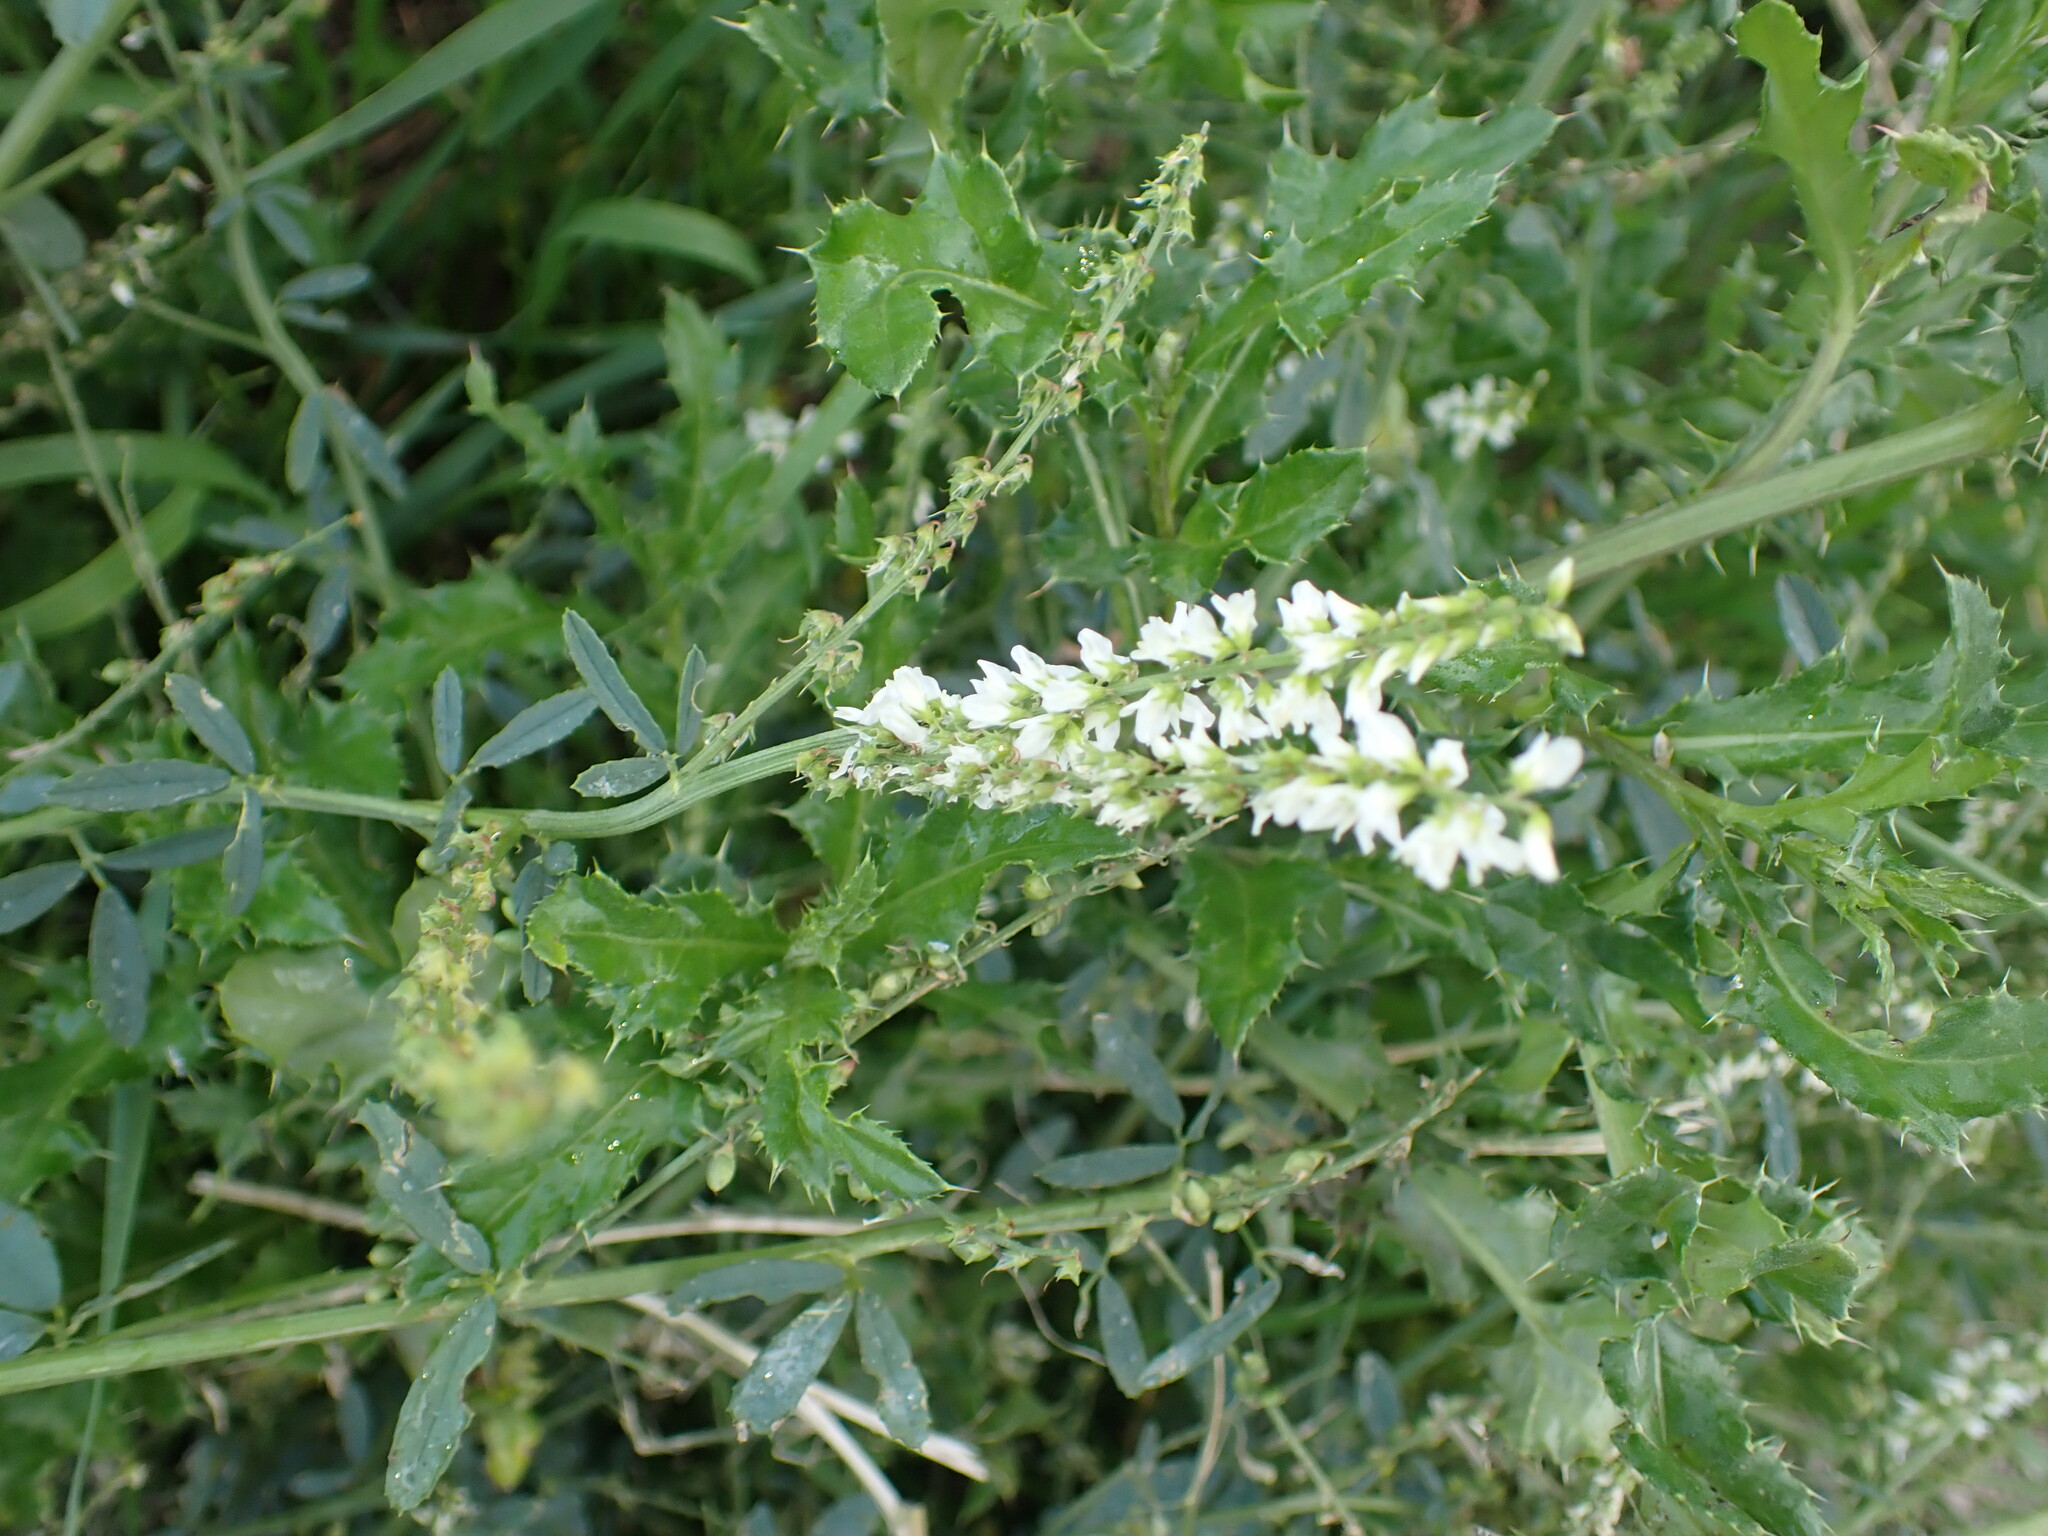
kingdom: Plantae
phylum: Tracheophyta
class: Magnoliopsida
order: Fabales
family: Fabaceae
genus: Melilotus
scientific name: Melilotus albus
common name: White melilot
